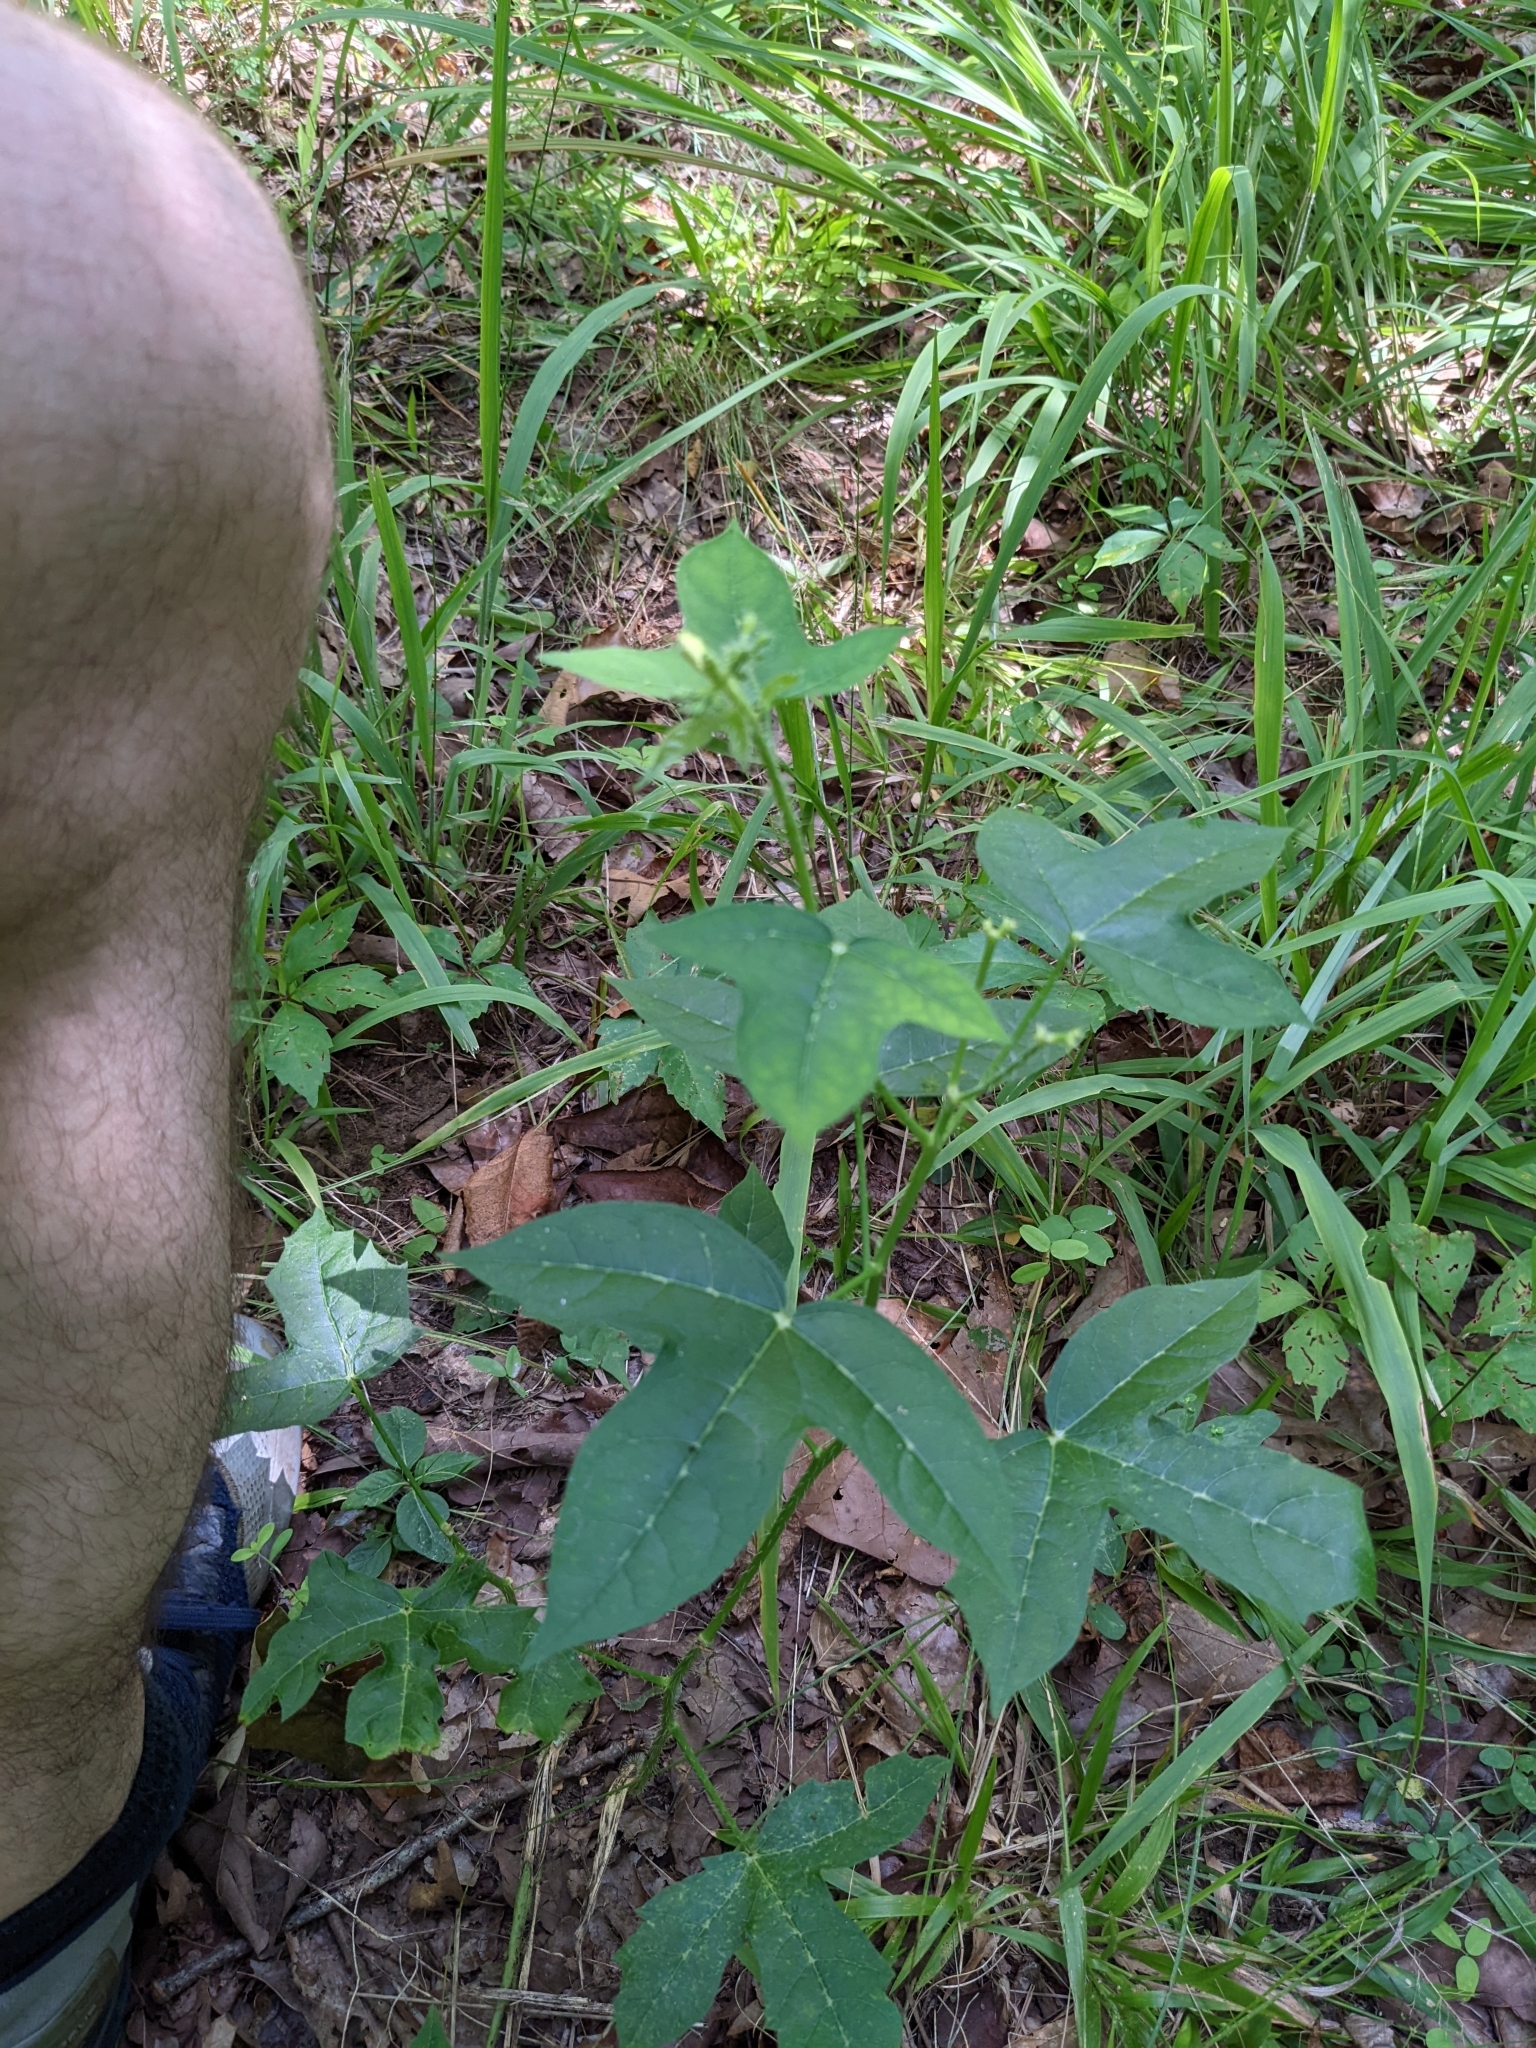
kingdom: Plantae
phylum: Tracheophyta
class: Magnoliopsida
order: Malpighiales
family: Euphorbiaceae
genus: Cnidoscolus
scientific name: Cnidoscolus stimulosus
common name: Bull-nettle
